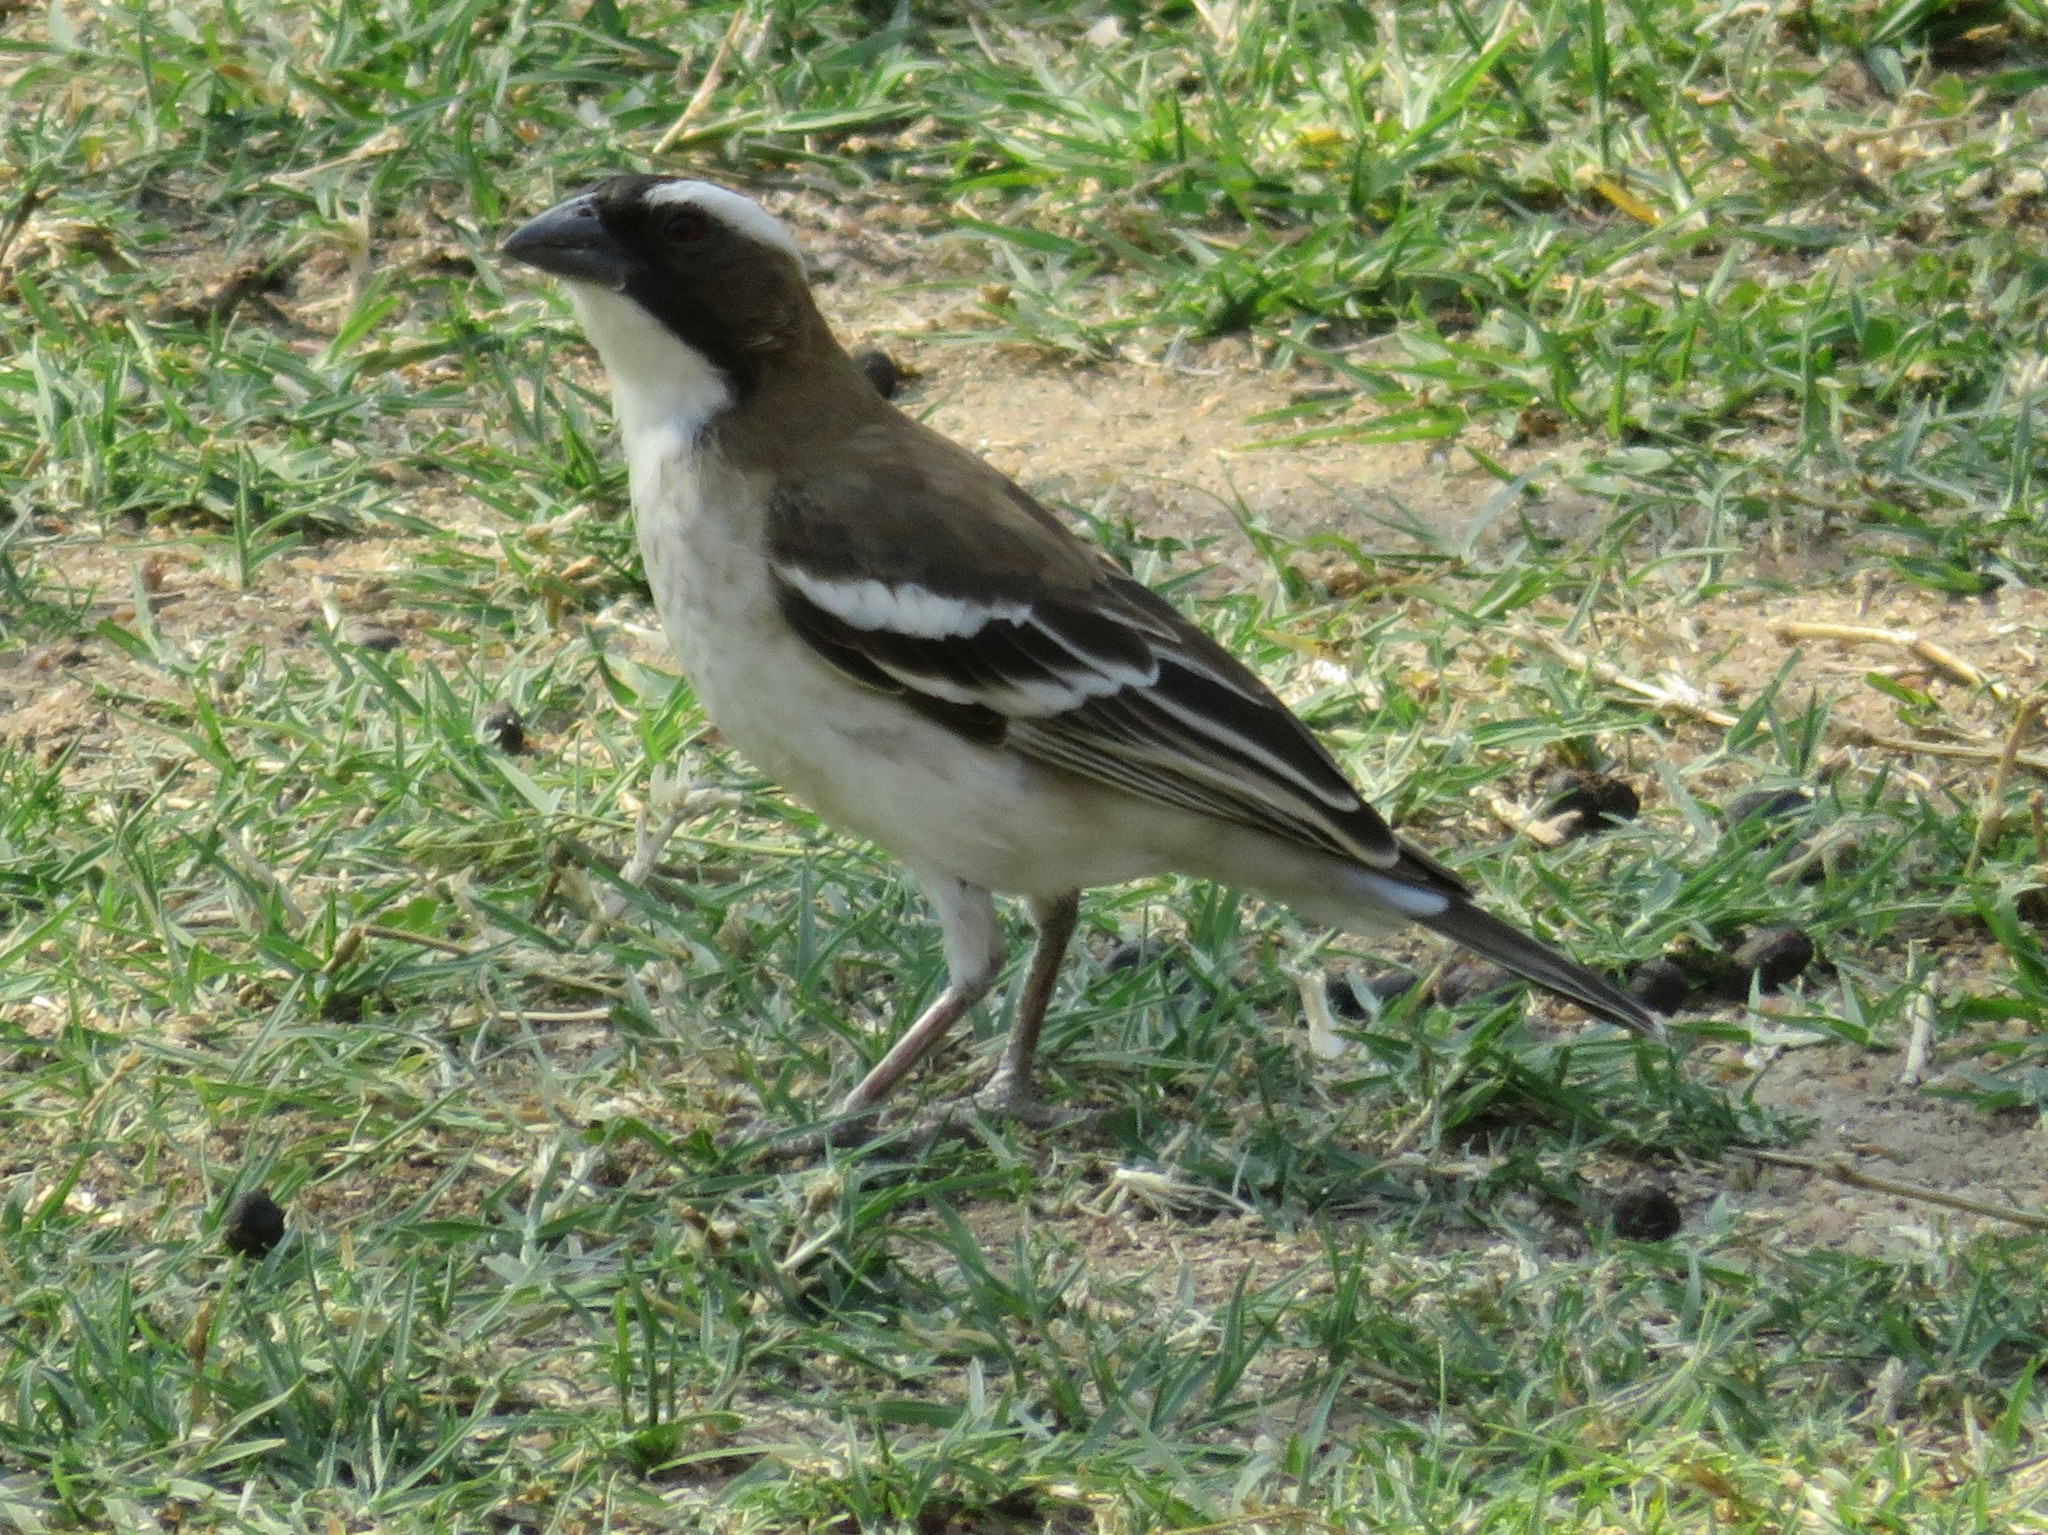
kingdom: Animalia
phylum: Chordata
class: Aves
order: Passeriformes
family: Passeridae
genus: Plocepasser
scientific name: Plocepasser mahali
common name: White-browed sparrow-weaver
